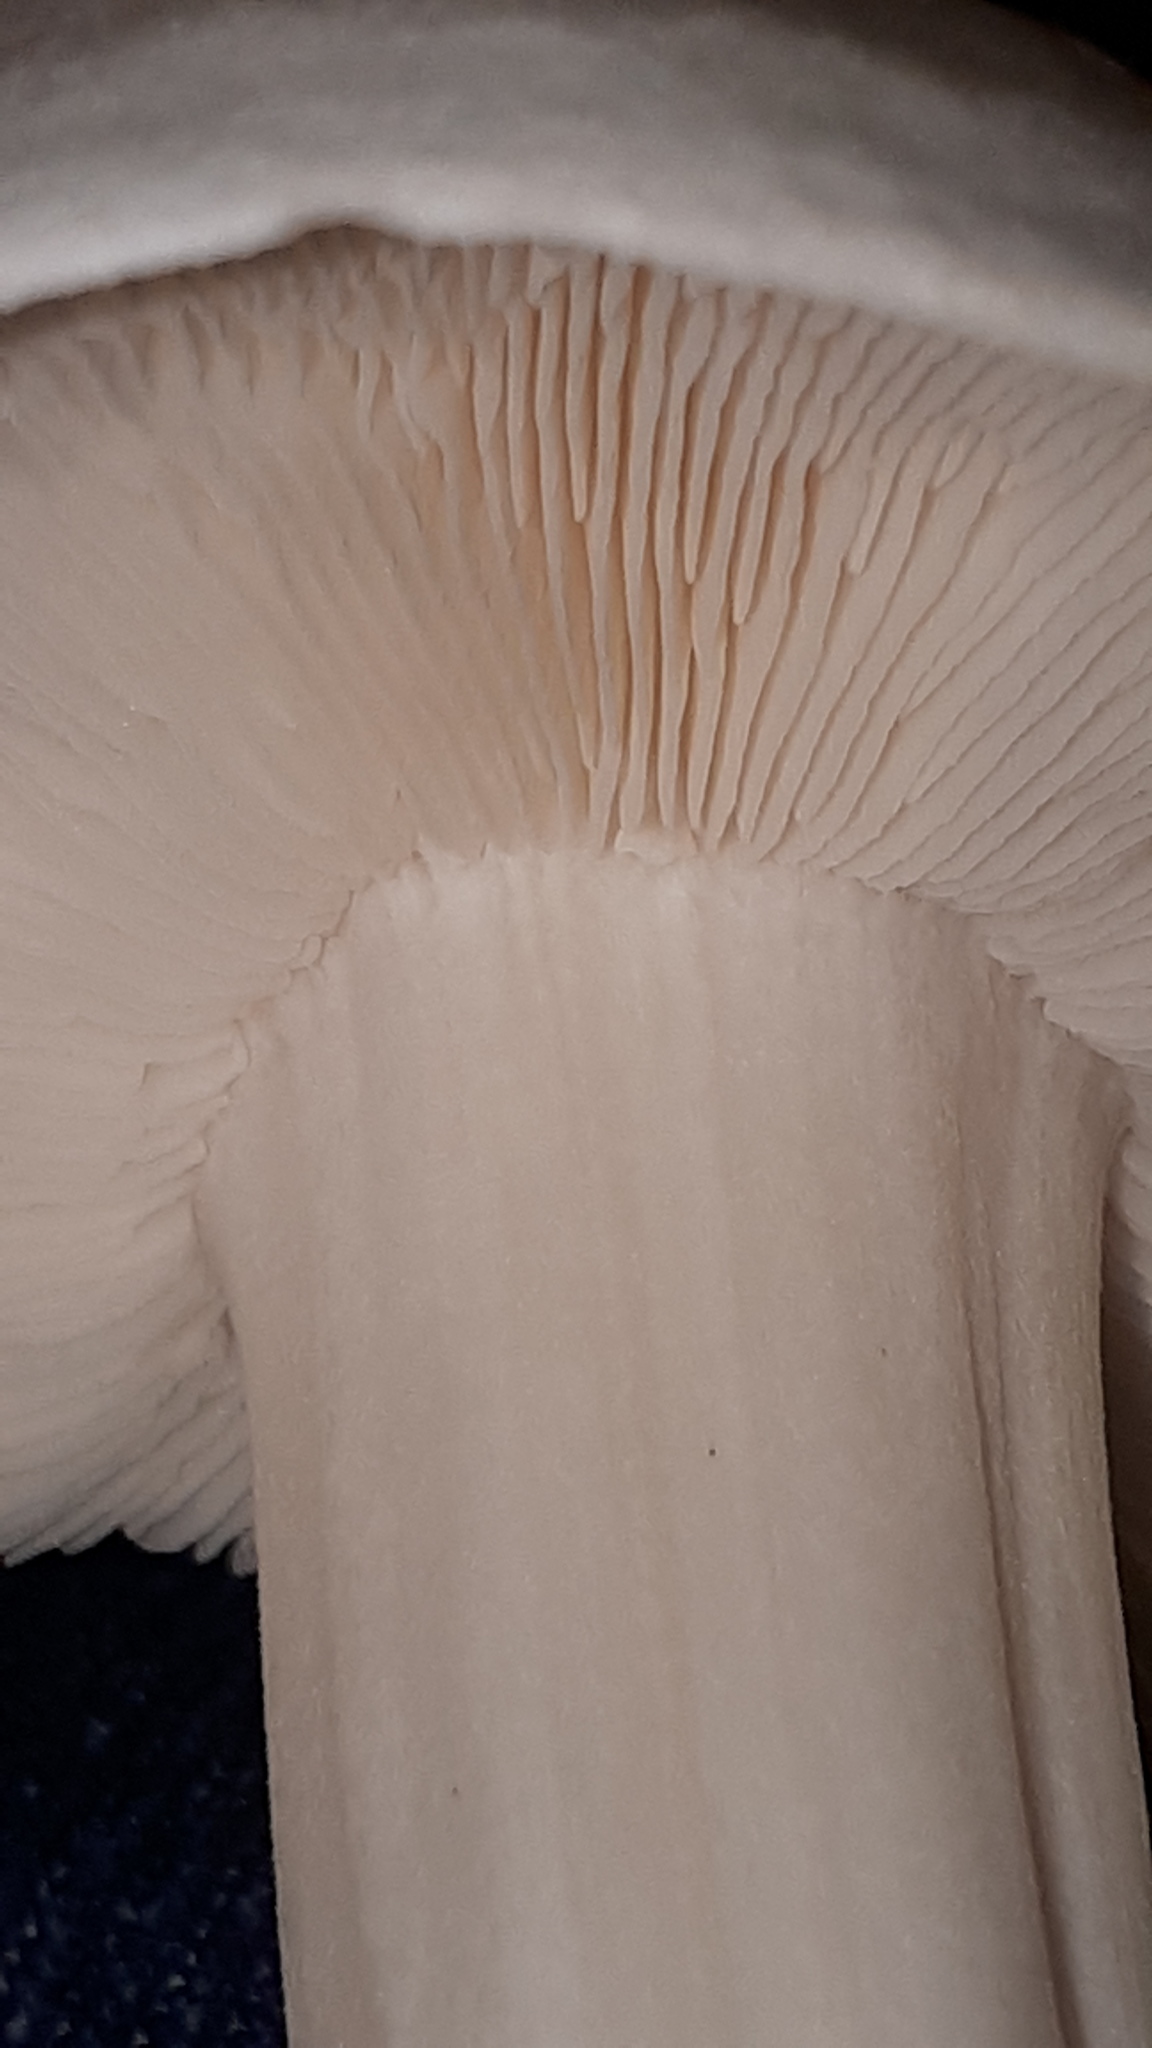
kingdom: Fungi
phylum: Basidiomycota
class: Agaricomycetes
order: Agaricales
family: Omphalotaceae
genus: Rhodocollybia
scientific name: Rhodocollybia maculata
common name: Spotted tough-shank
